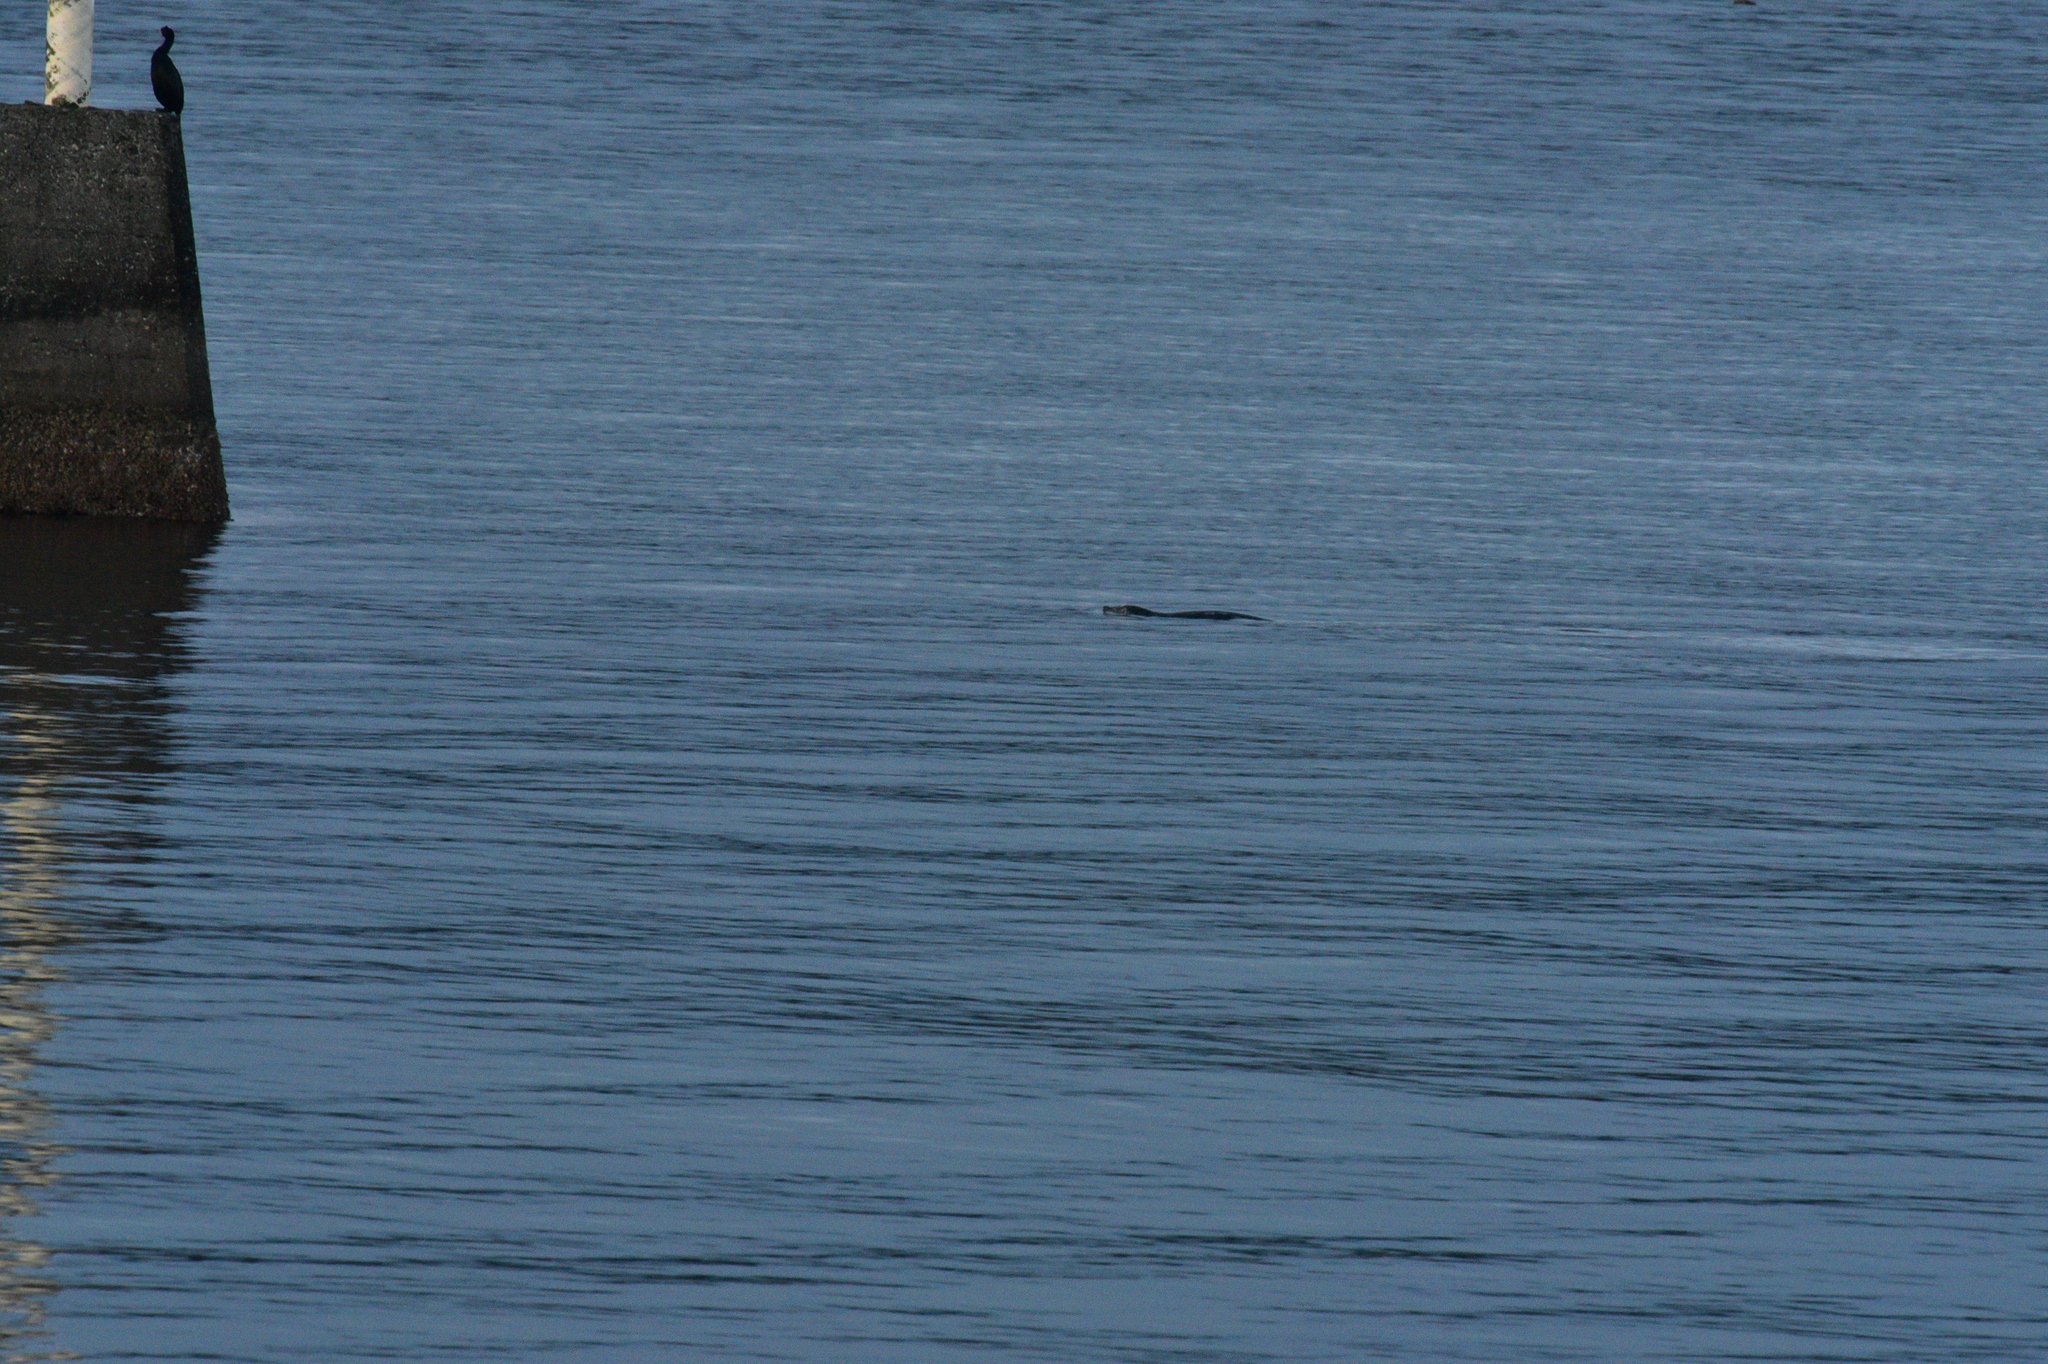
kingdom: Animalia
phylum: Chordata
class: Mammalia
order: Carnivora
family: Phocidae
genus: Phoca
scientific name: Phoca vitulina
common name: Harbor seal
